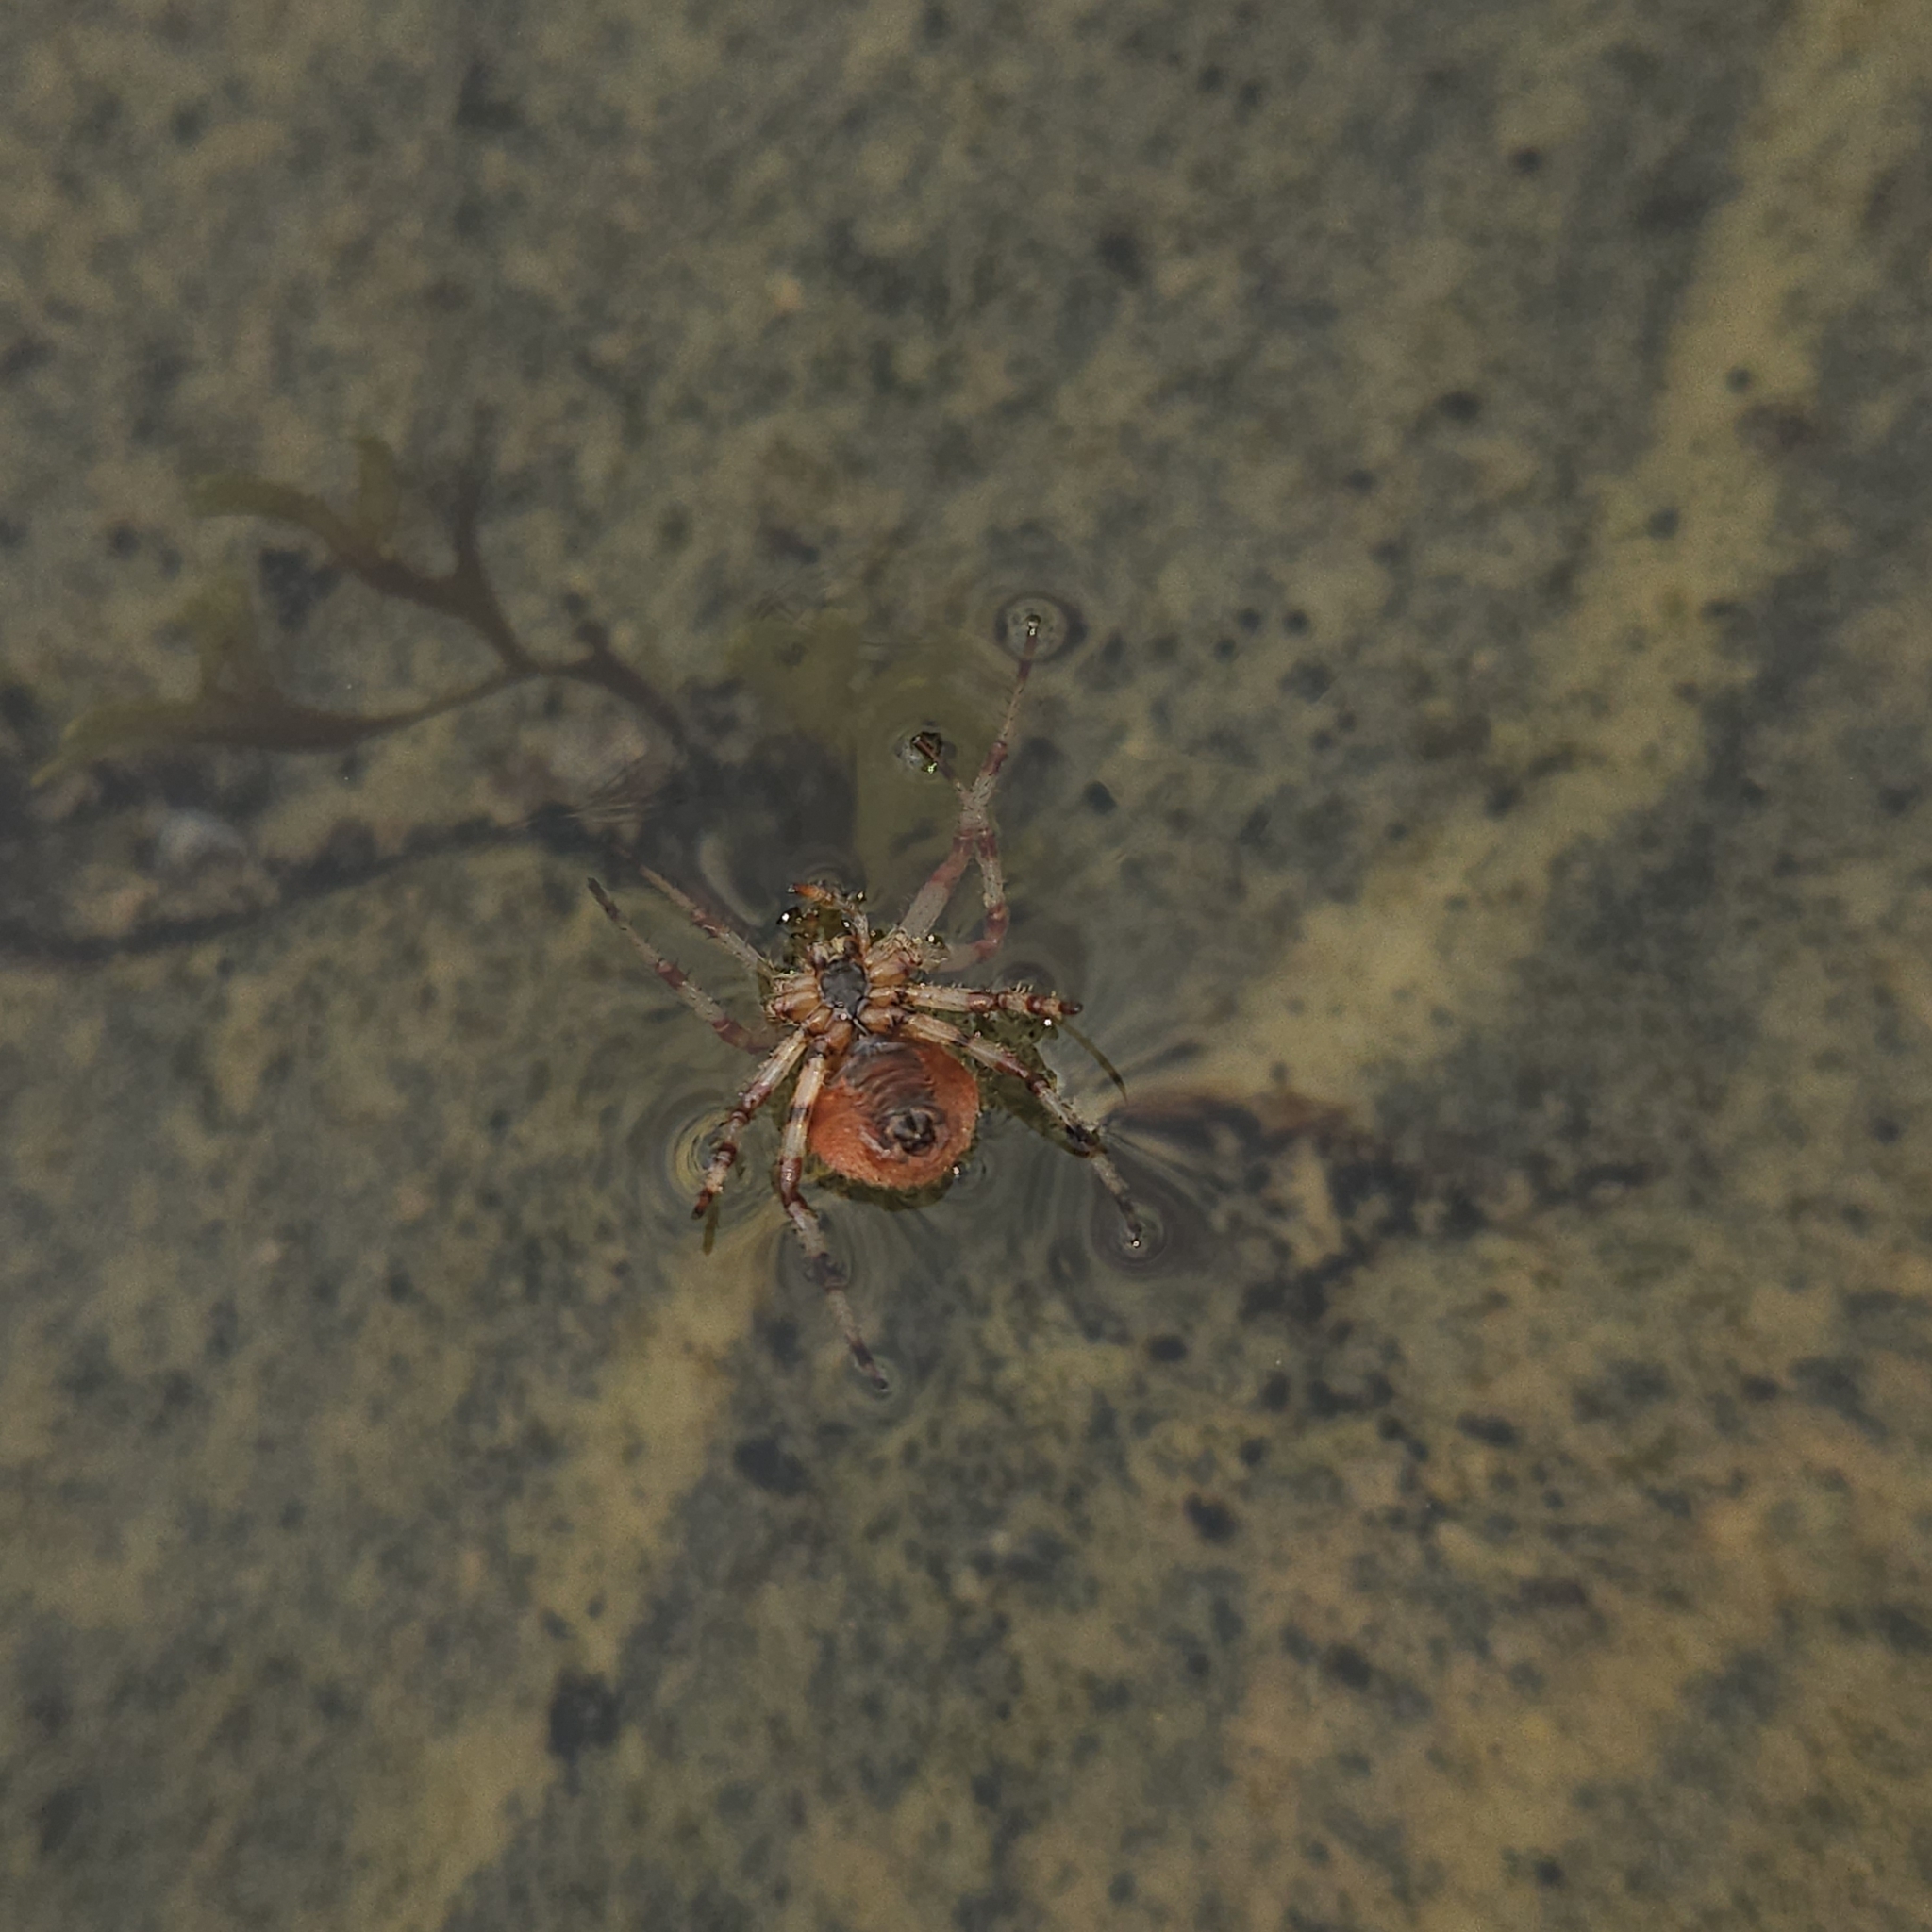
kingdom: Animalia
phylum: Arthropoda
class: Arachnida
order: Araneae
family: Araneidae
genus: Araneus
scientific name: Araneus trifolium
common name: Shamrock orbweaver
